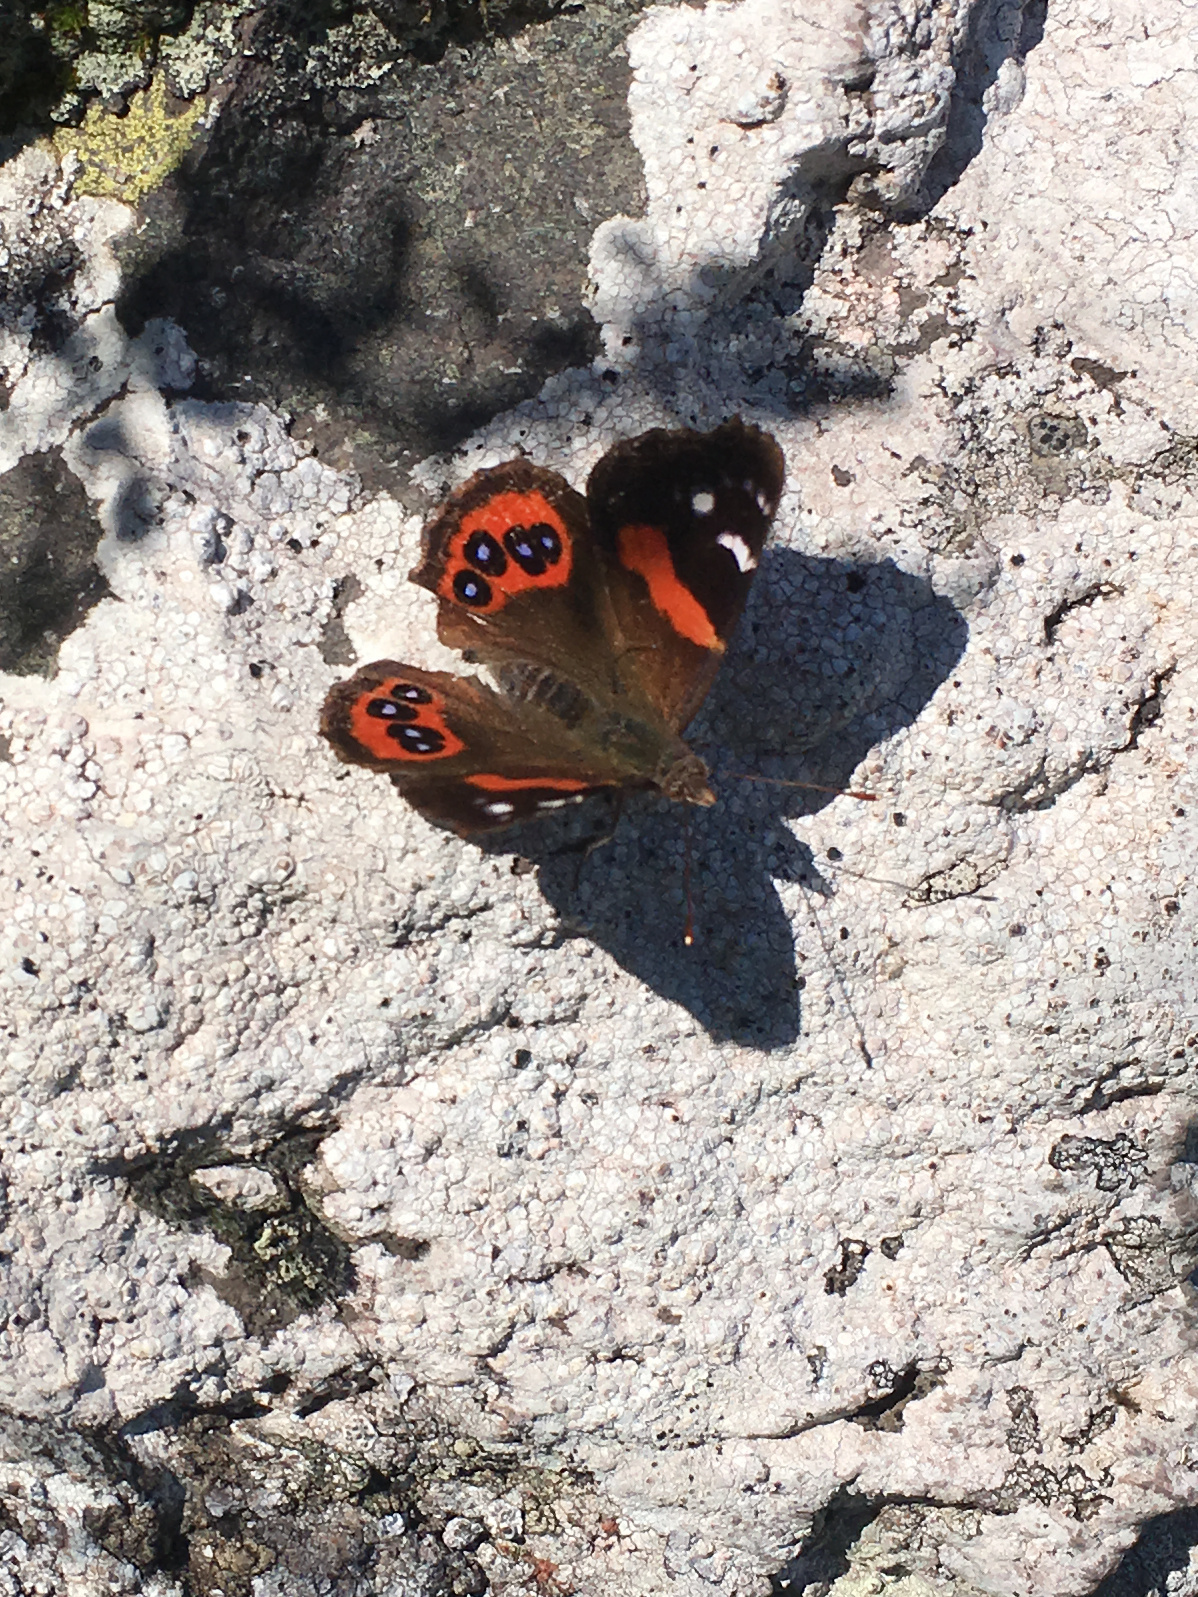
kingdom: Animalia
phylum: Arthropoda
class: Insecta
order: Lepidoptera
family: Nymphalidae
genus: Vanessa
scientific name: Vanessa gonerilla
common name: New zealand red admiral
